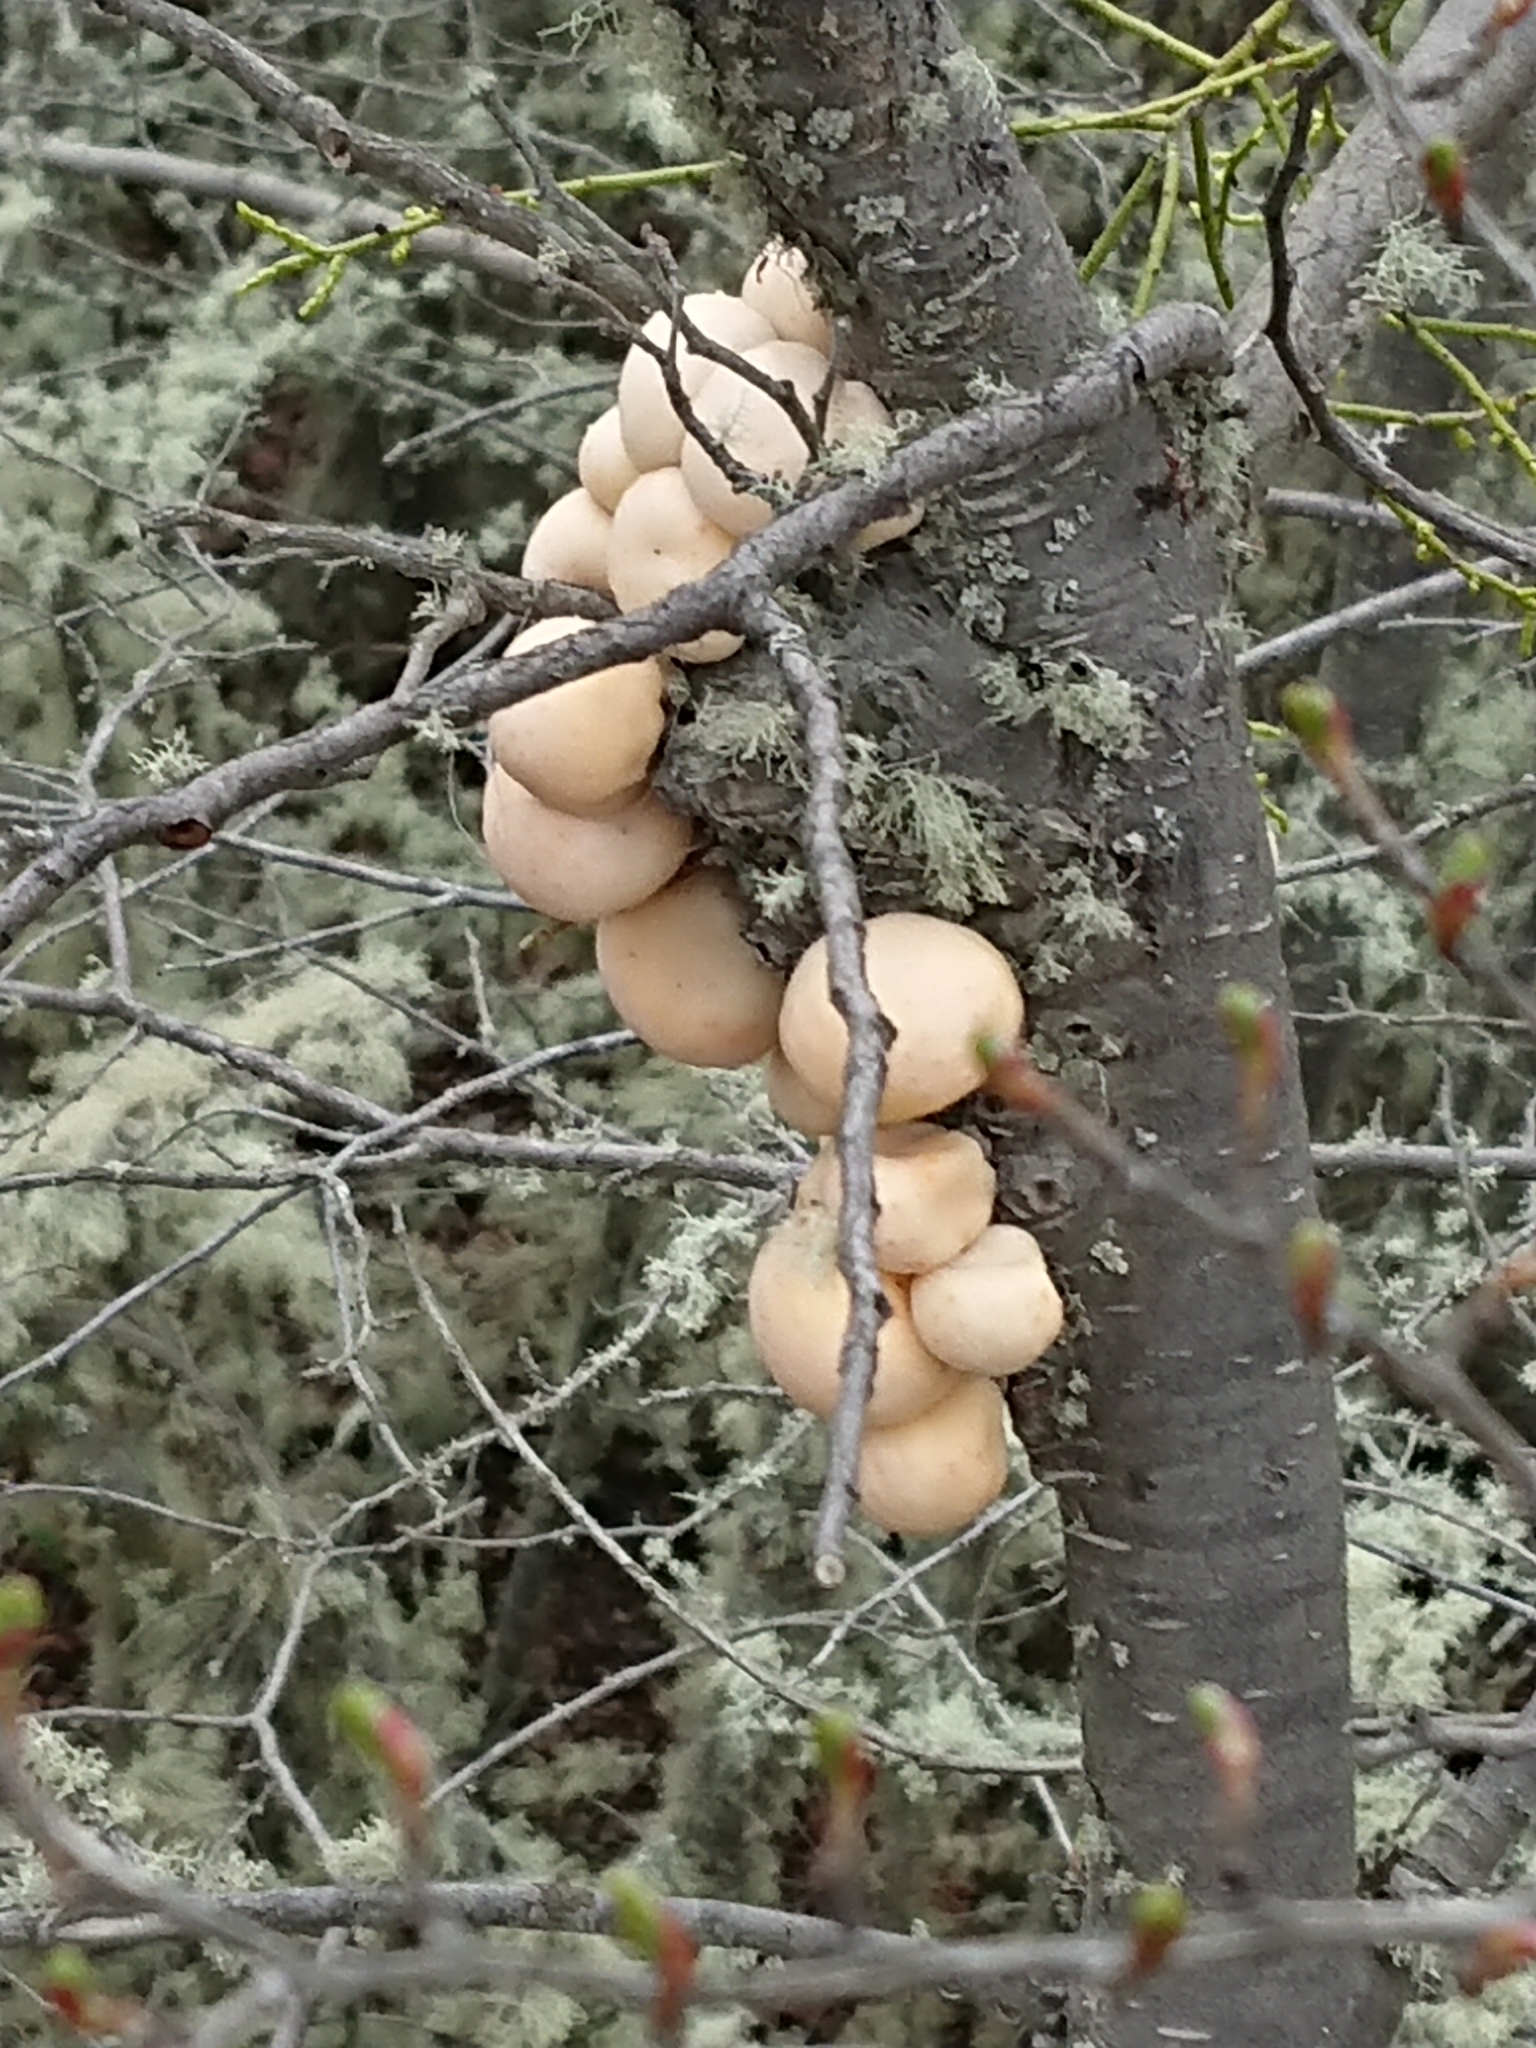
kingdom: Fungi
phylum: Ascomycota
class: Leotiomycetes
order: Cyttariales
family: Cyttariaceae
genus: Cyttaria
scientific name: Cyttaria darwinii
